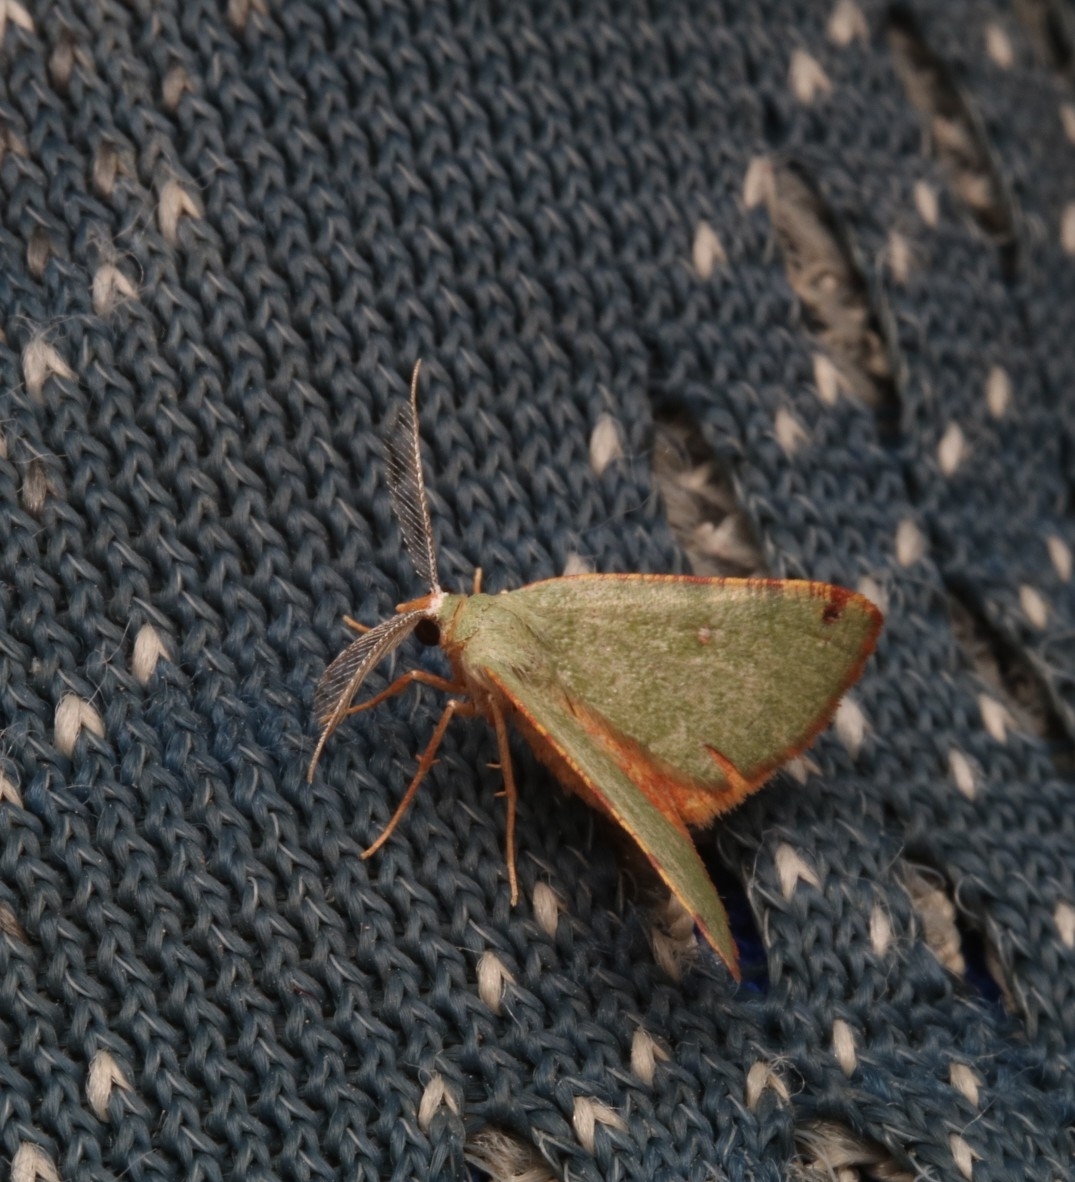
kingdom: Animalia
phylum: Arthropoda
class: Insecta
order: Lepidoptera
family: Geometridae
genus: Chloraspilates
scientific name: Chloraspilates bicoloraria
